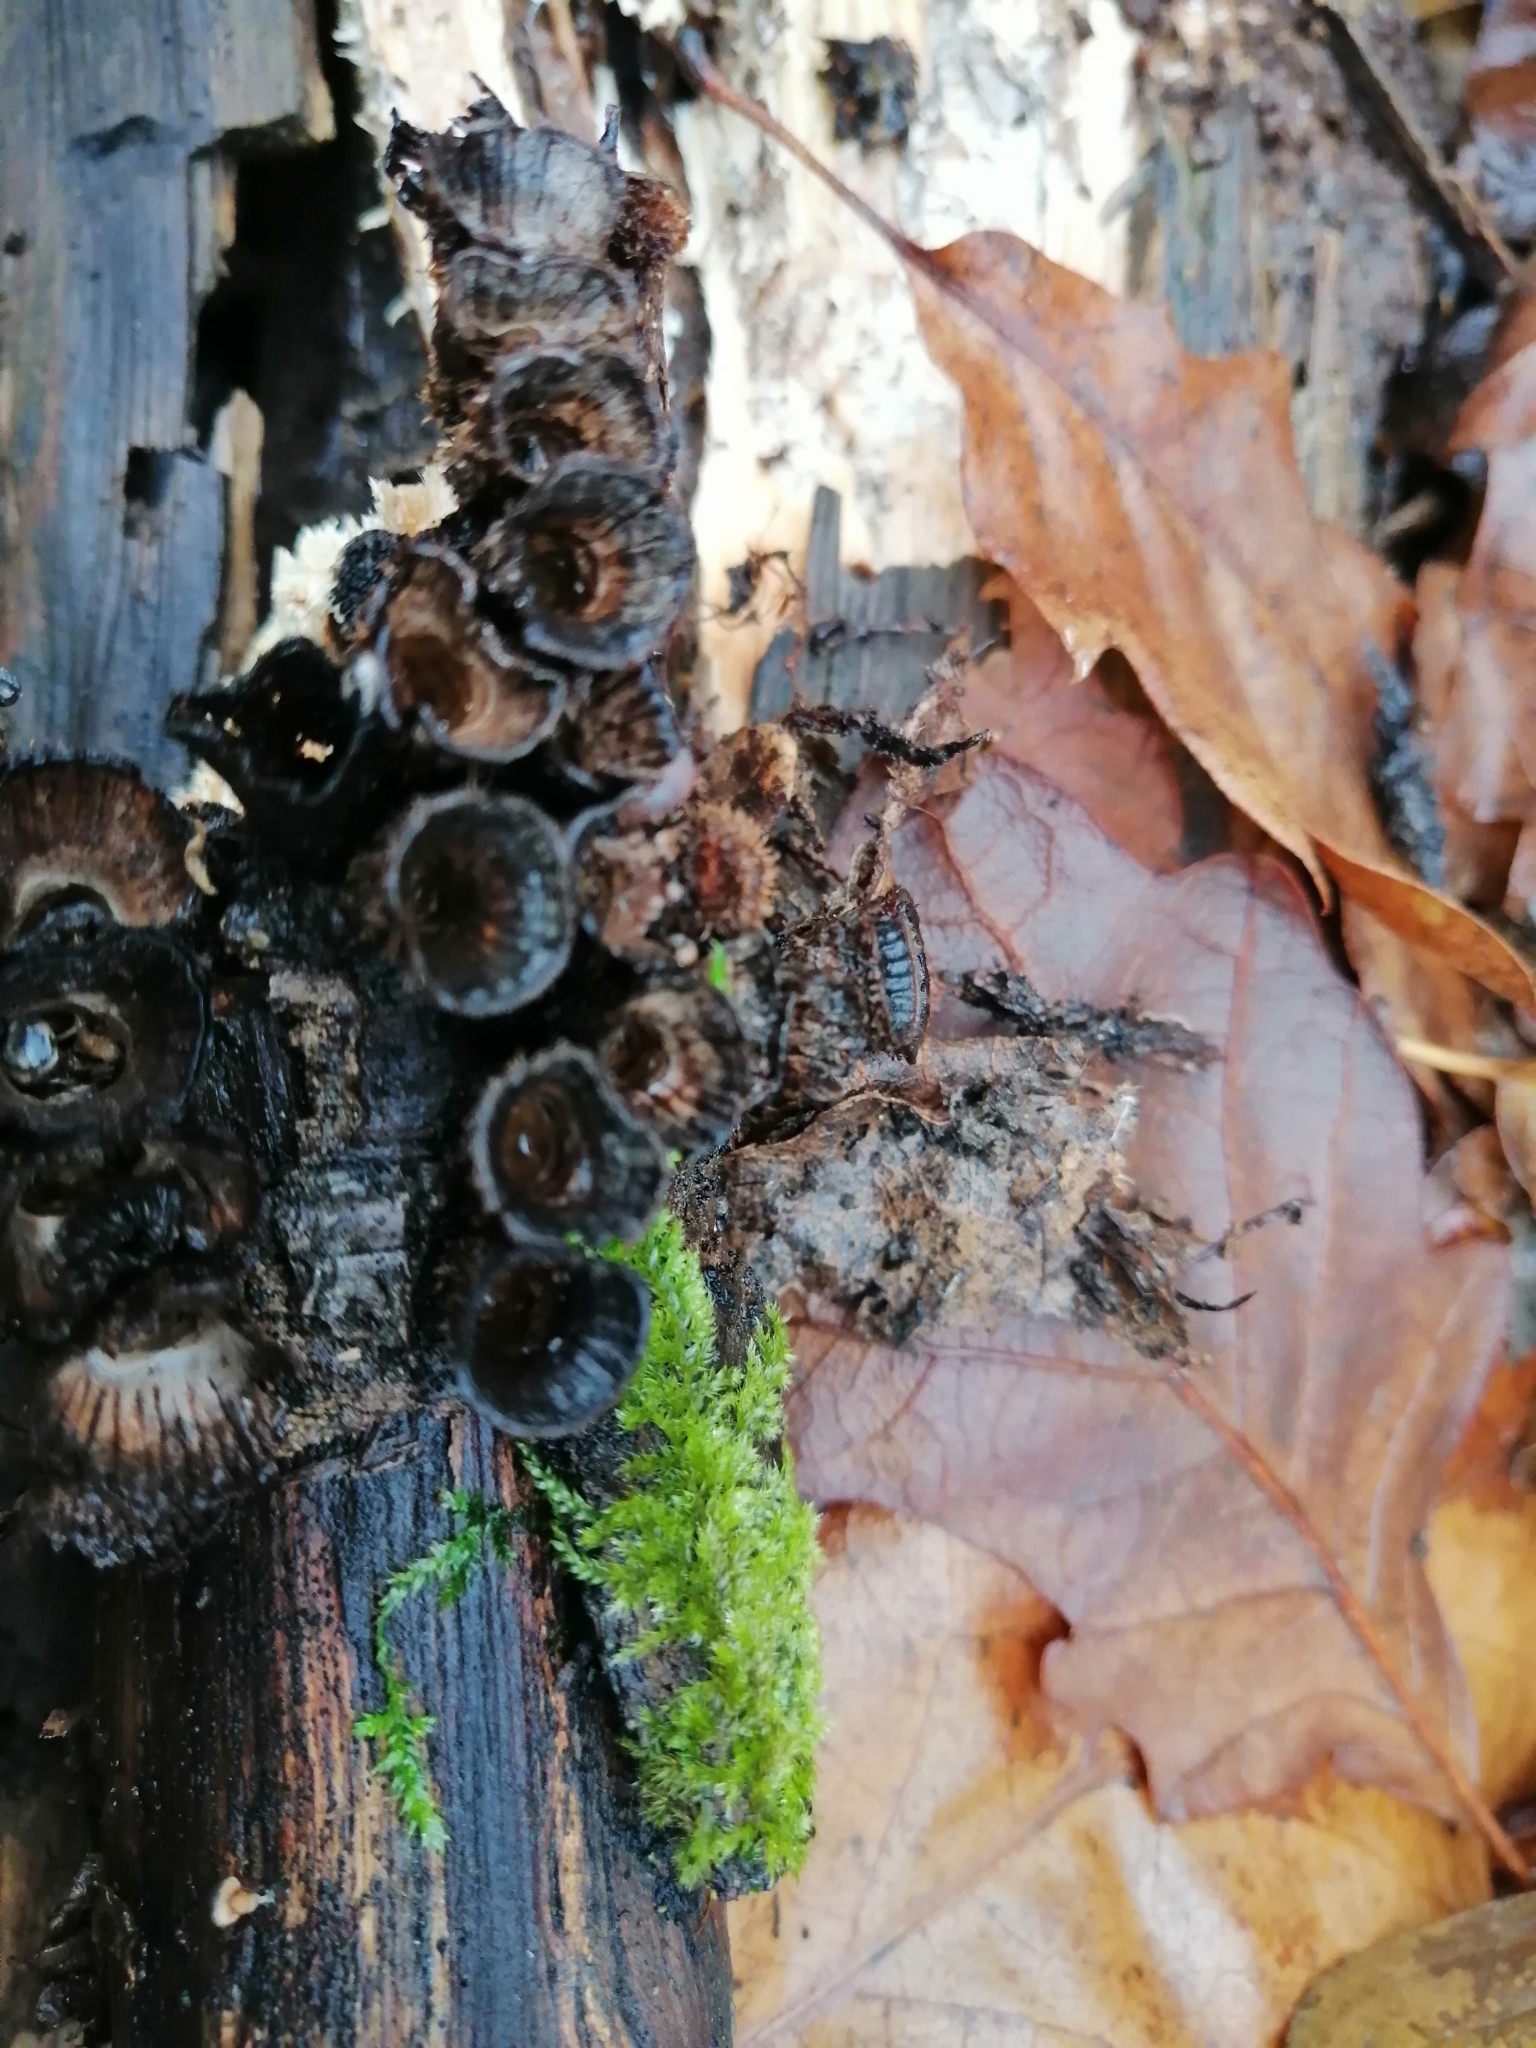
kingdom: Fungi
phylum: Basidiomycota
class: Agaricomycetes
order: Agaricales
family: Agaricaceae
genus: Cyathus
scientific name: Cyathus striatus
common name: Fluted bird's nest
